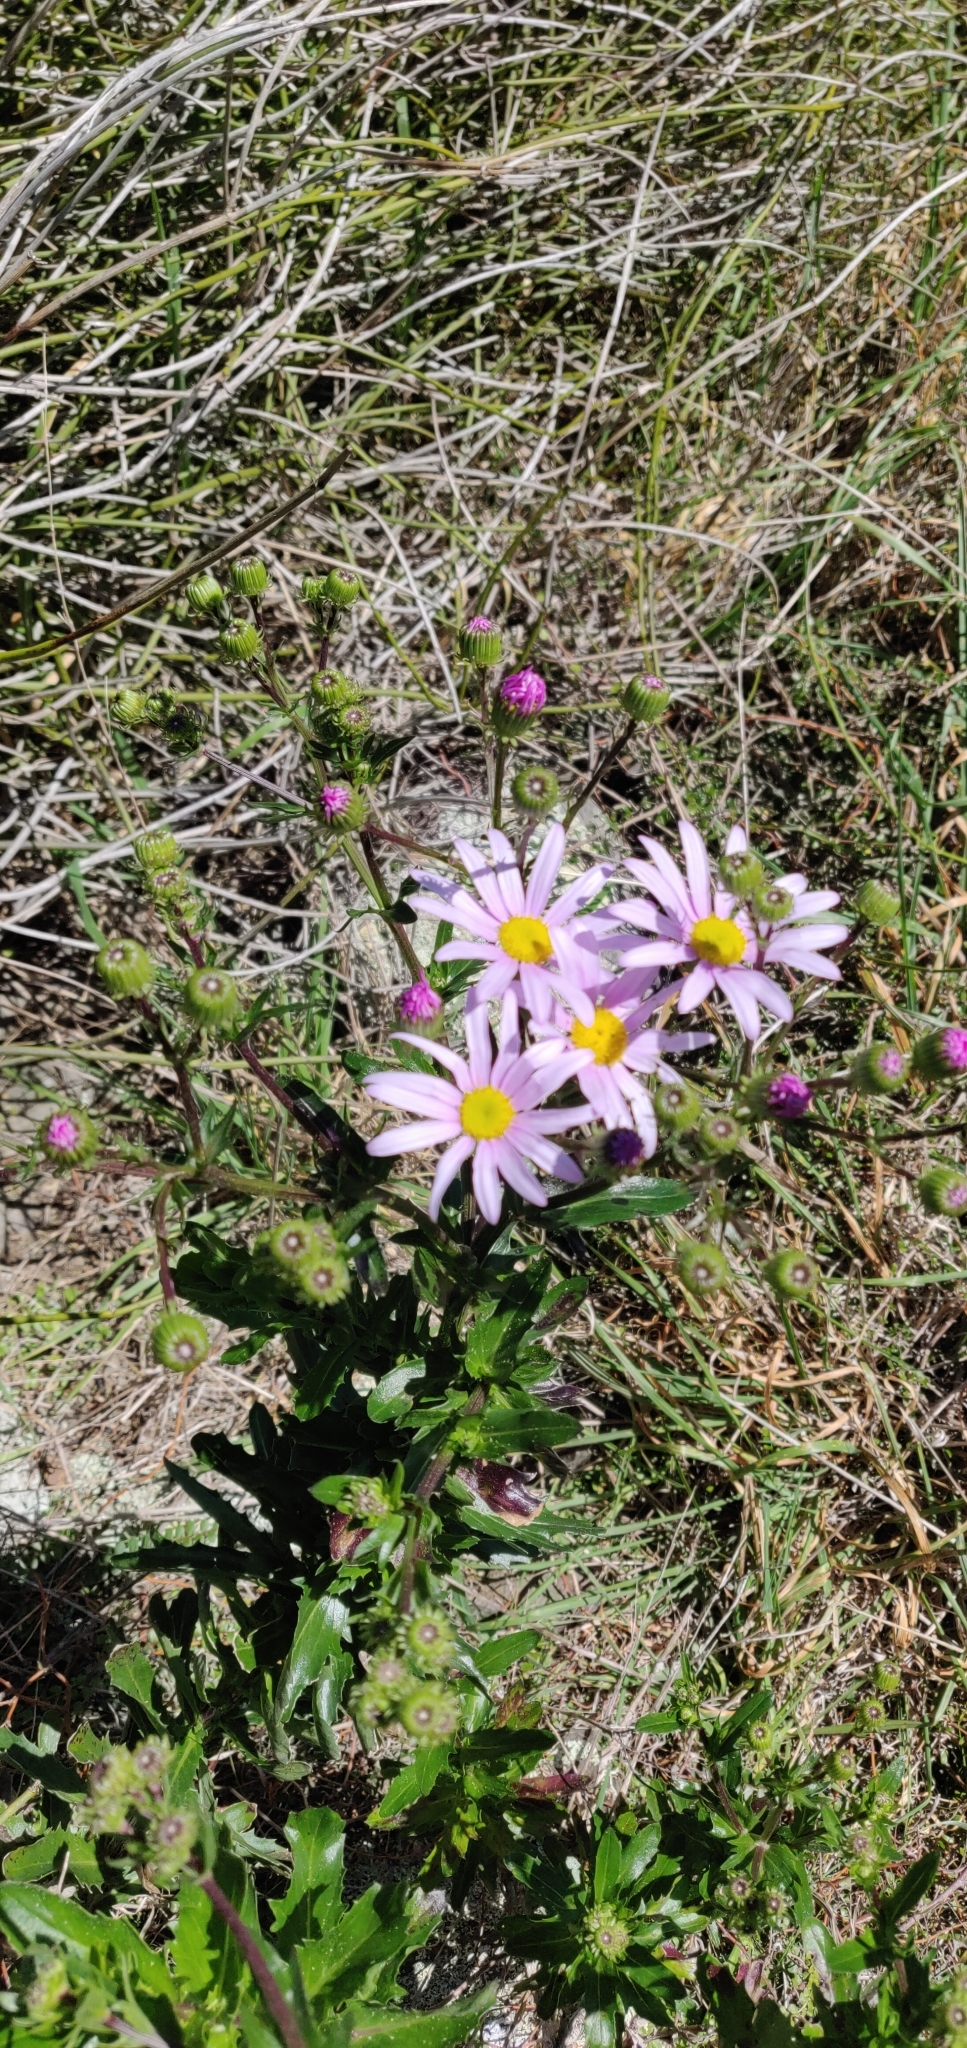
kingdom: Plantae
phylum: Tracheophyta
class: Magnoliopsida
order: Asterales
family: Asteraceae
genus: Senecio
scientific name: Senecio glastifolius
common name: Woad-leaved ragwort
